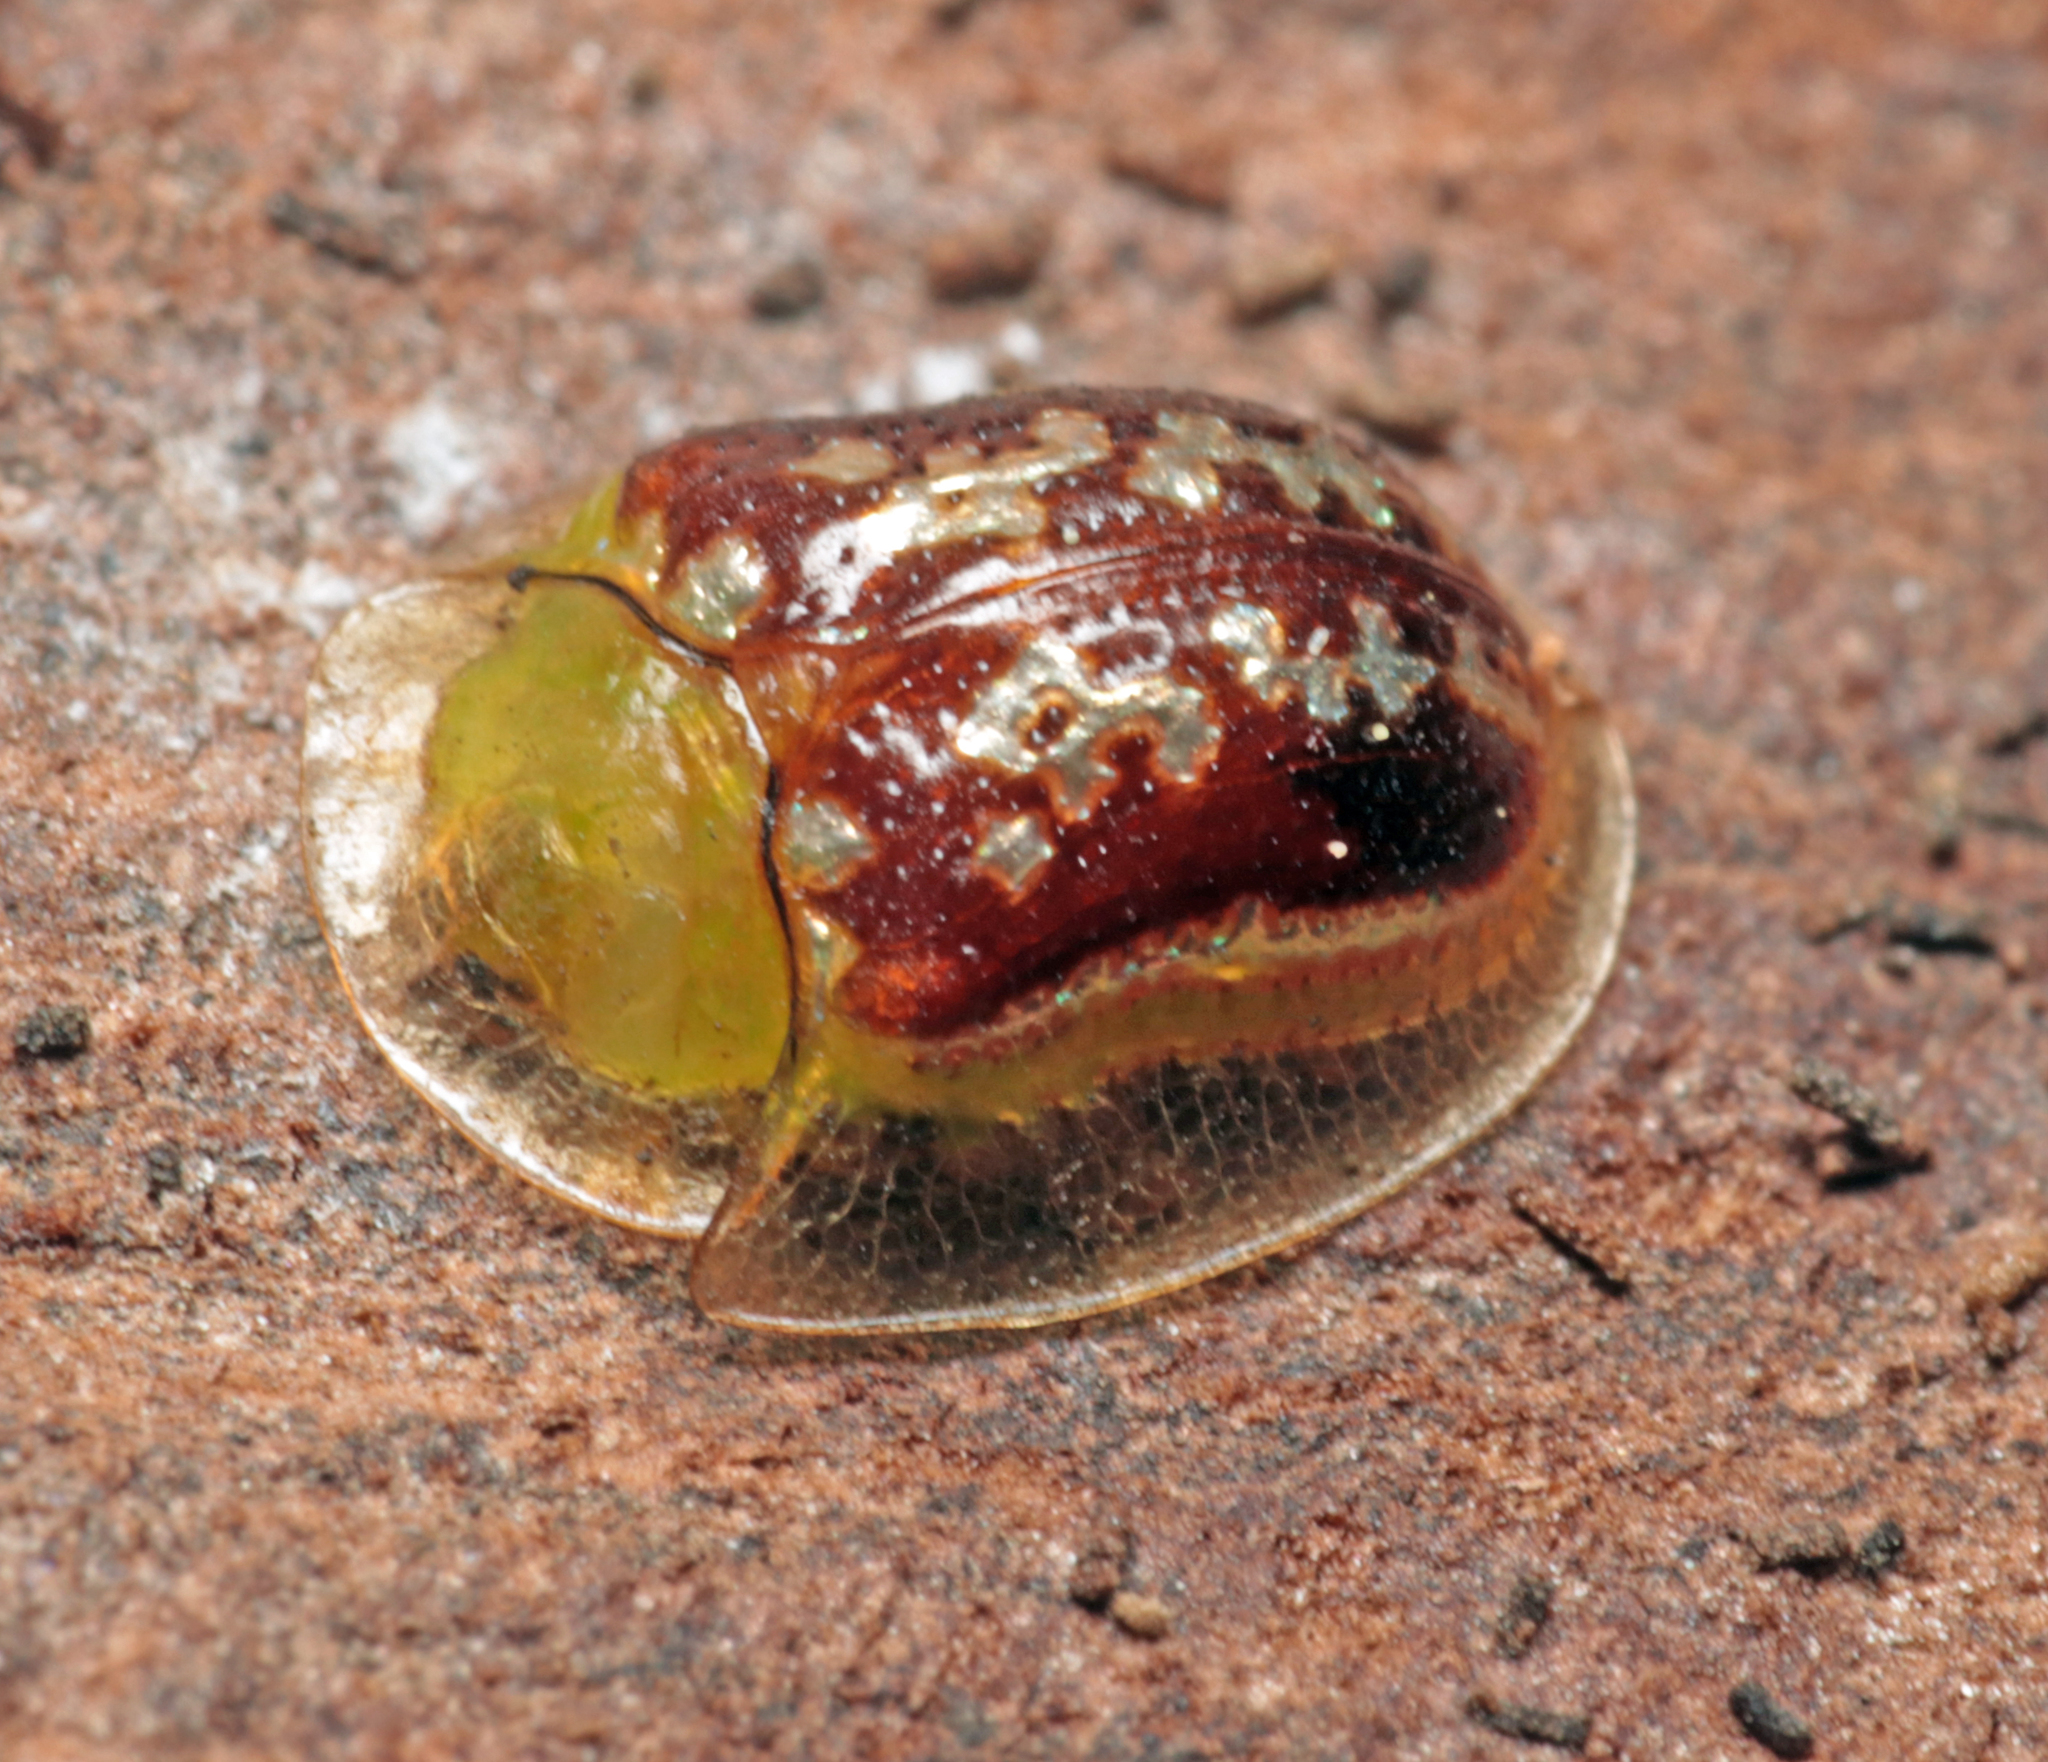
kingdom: Animalia
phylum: Arthropoda
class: Insecta
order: Coleoptera
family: Chrysomelidae
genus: Cassida
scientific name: Cassida compuncta
